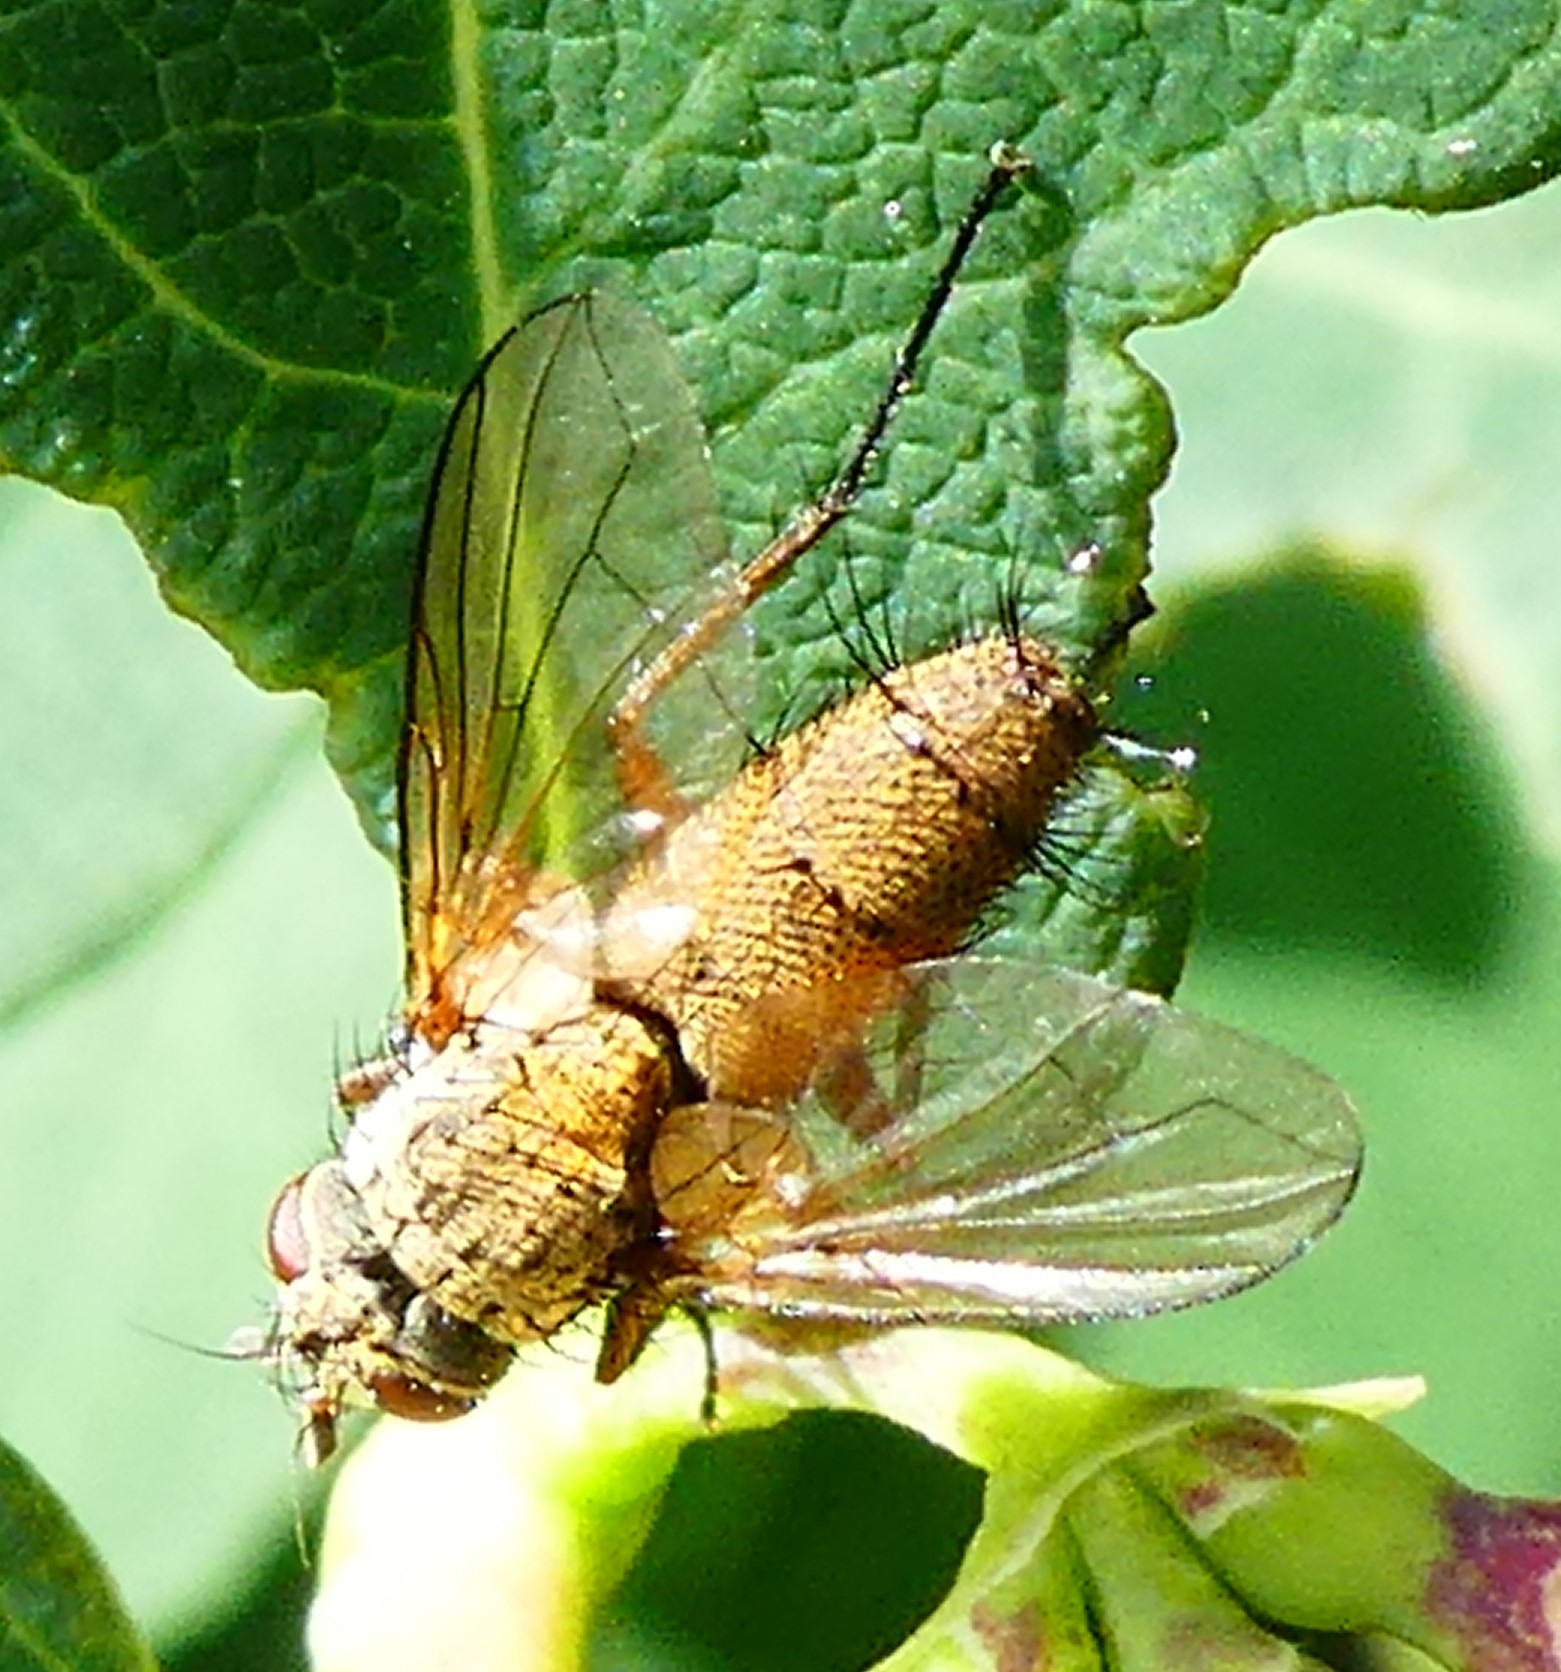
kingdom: Animalia
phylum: Arthropoda
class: Insecta
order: Diptera
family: Tachinidae
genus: Solieria
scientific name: Solieria
